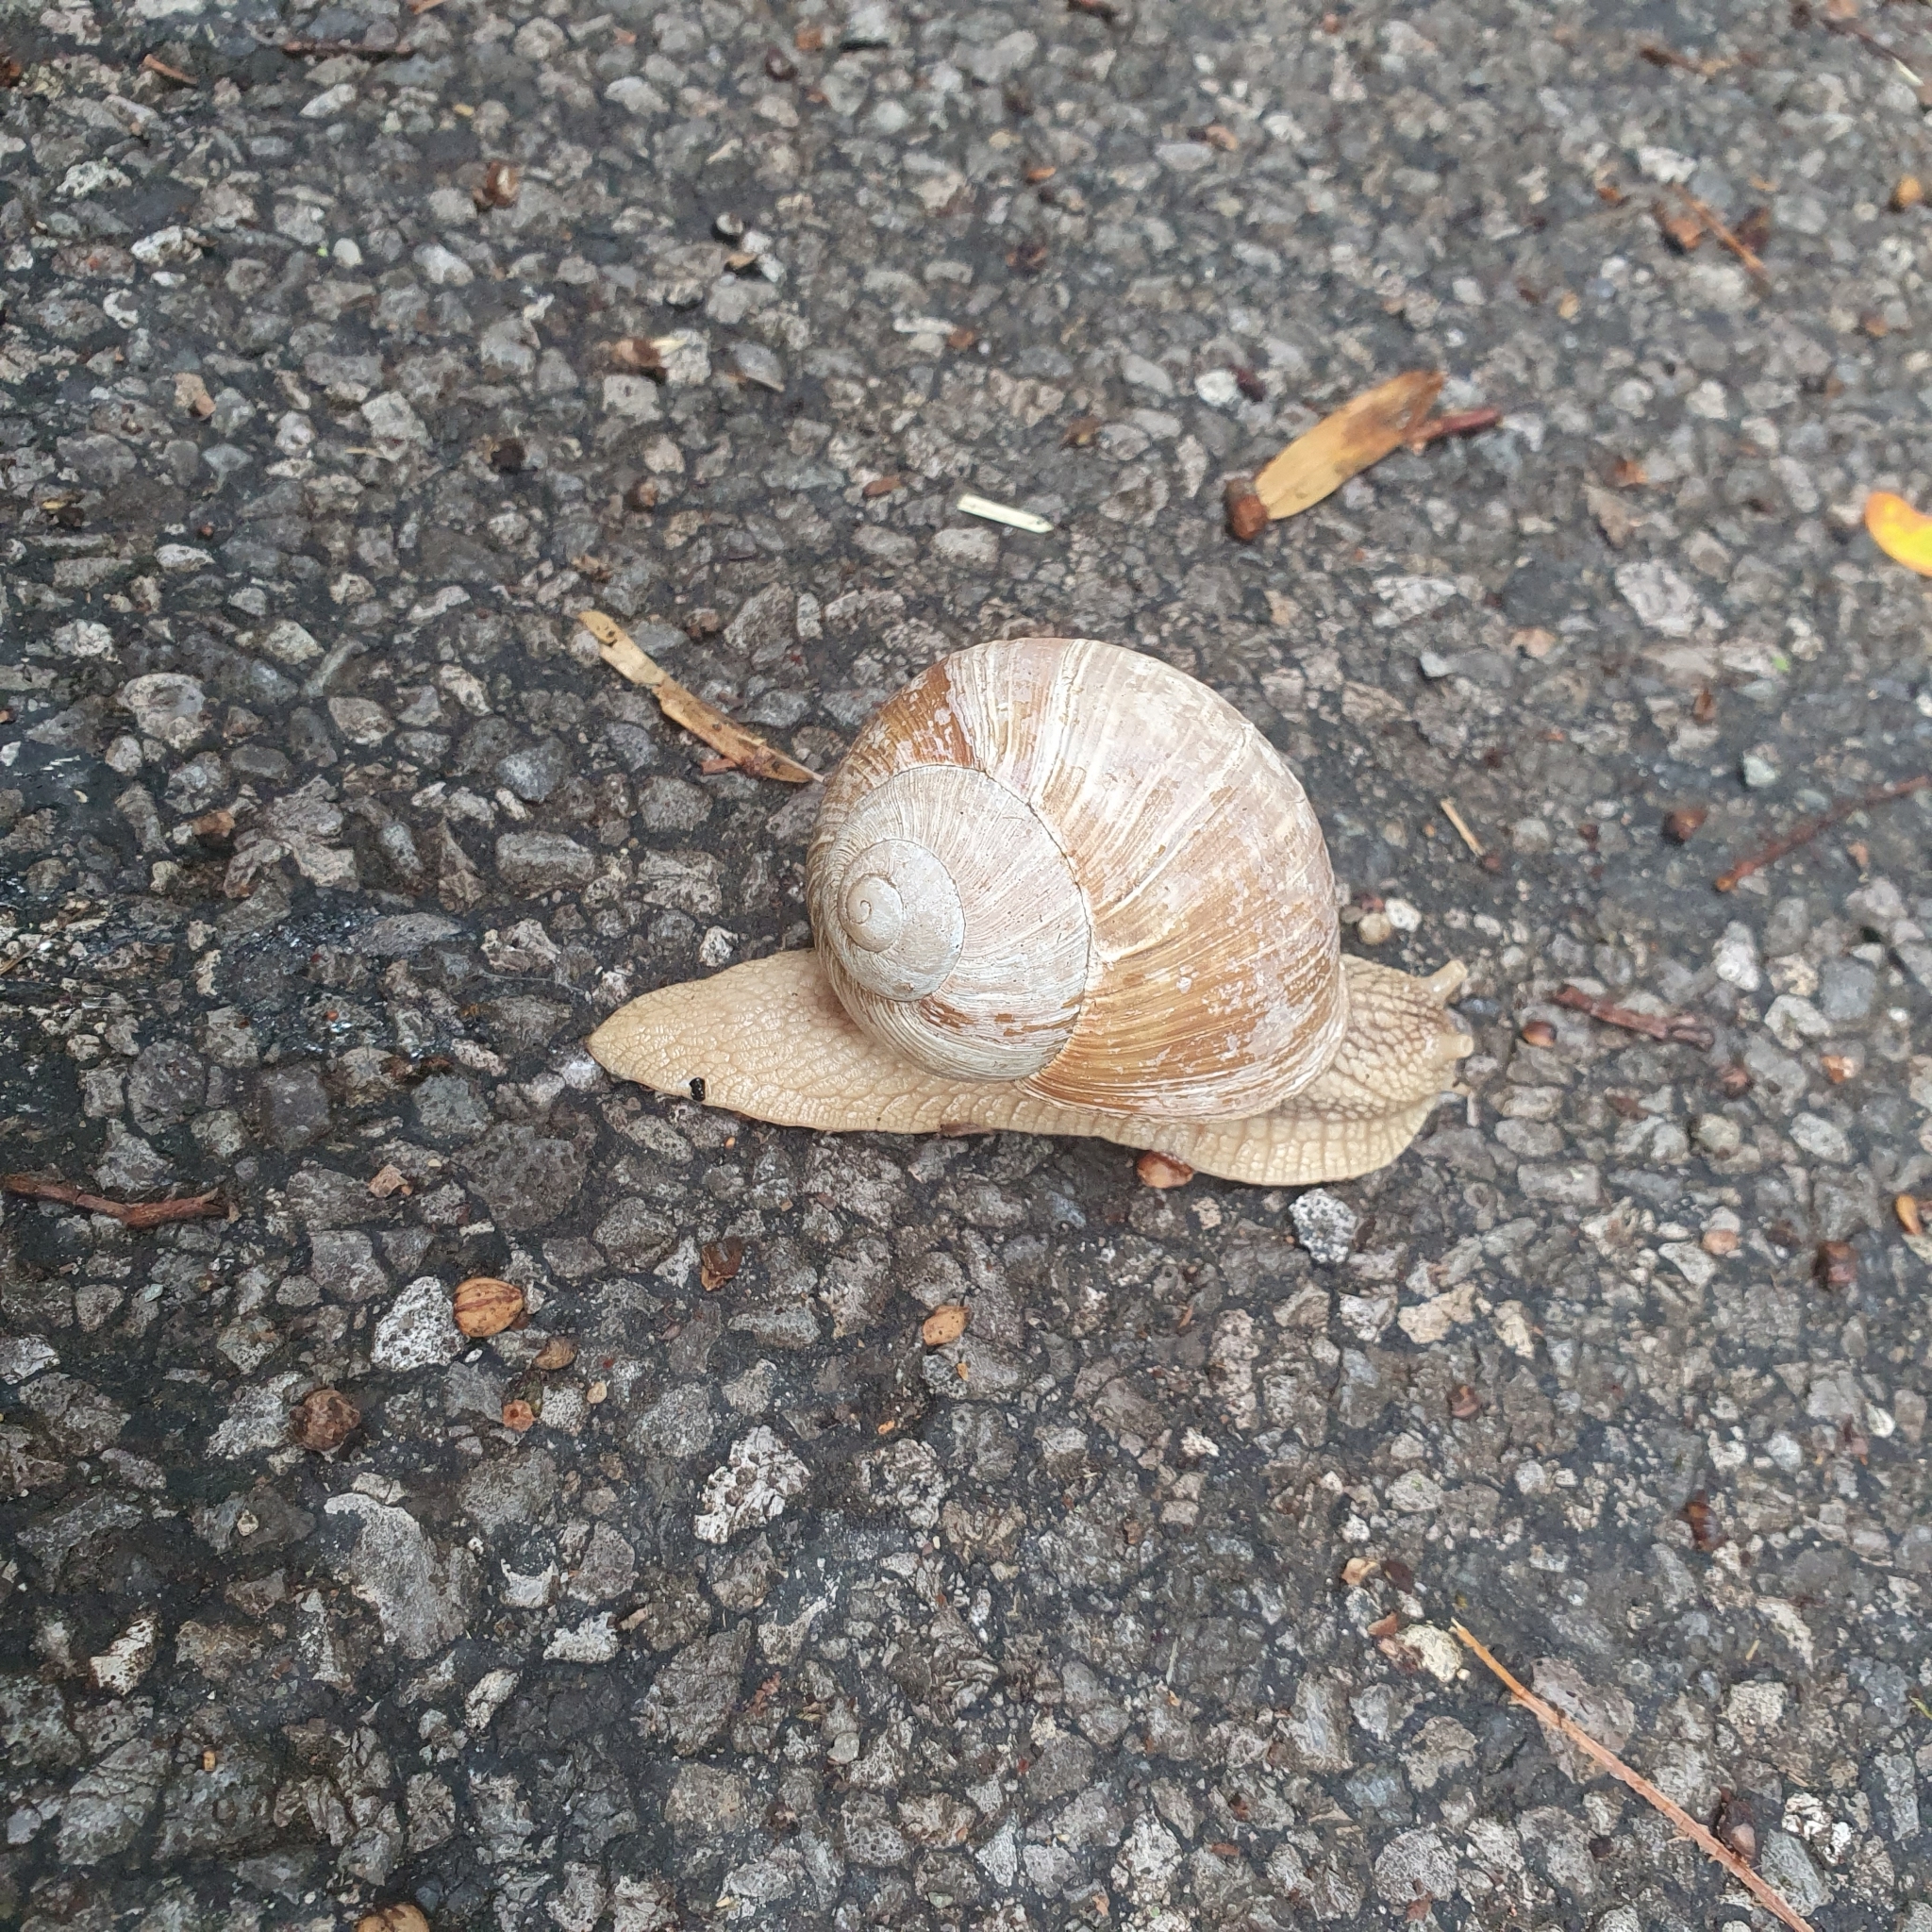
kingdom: Animalia
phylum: Mollusca
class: Gastropoda
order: Stylommatophora
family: Helicidae
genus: Helix
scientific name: Helix pomatia
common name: Roman snail
